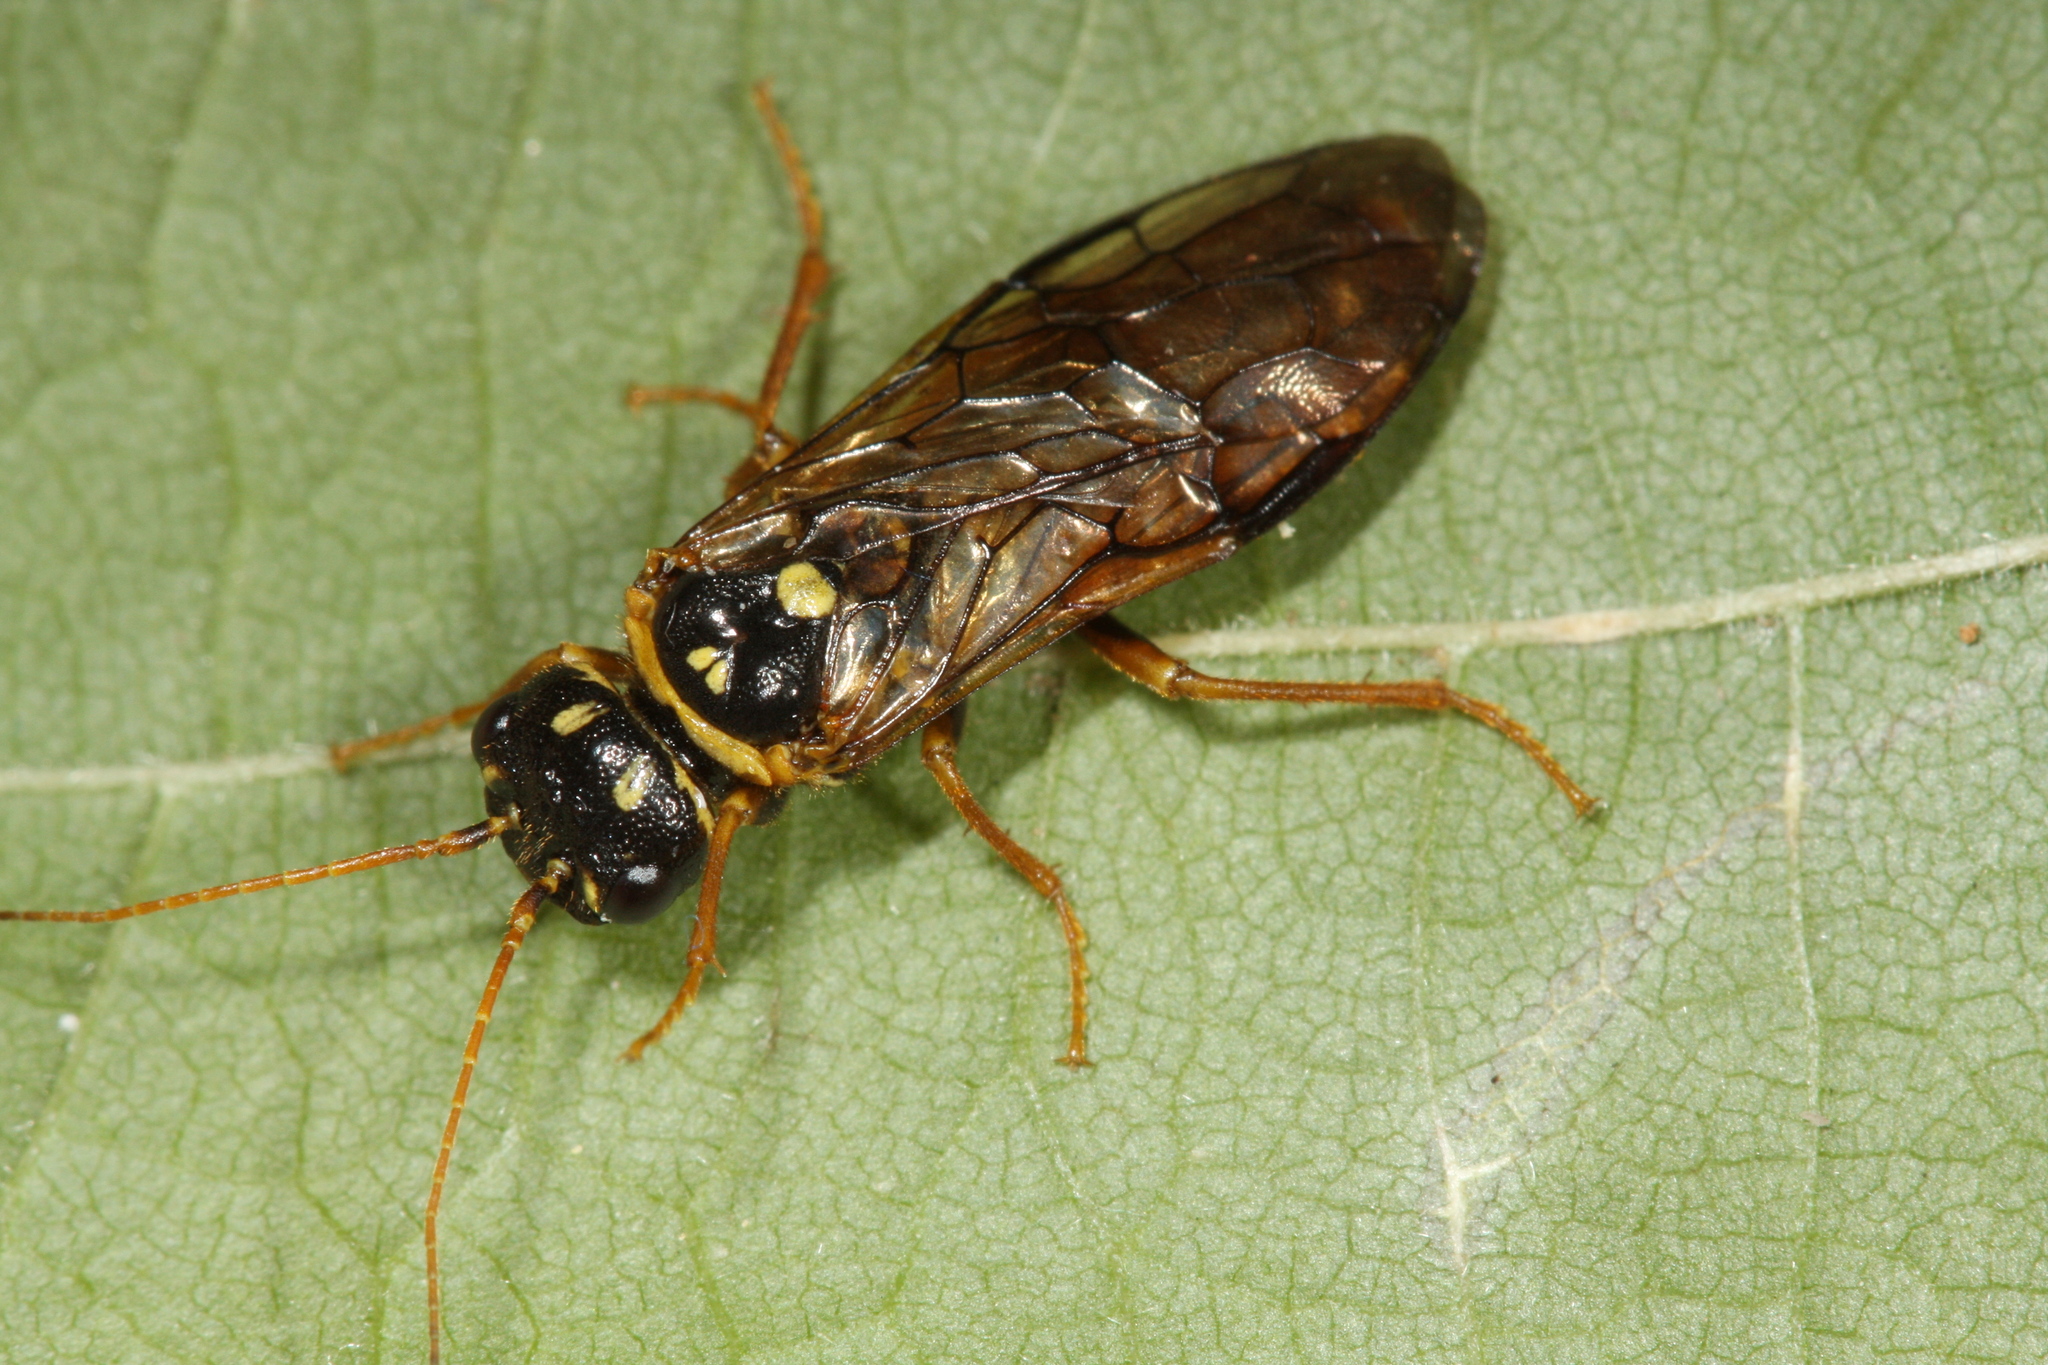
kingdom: Animalia
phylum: Arthropoda
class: Insecta
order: Hymenoptera
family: Pamphiliidae
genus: Cephalcia
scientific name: Cephalcia abietis
